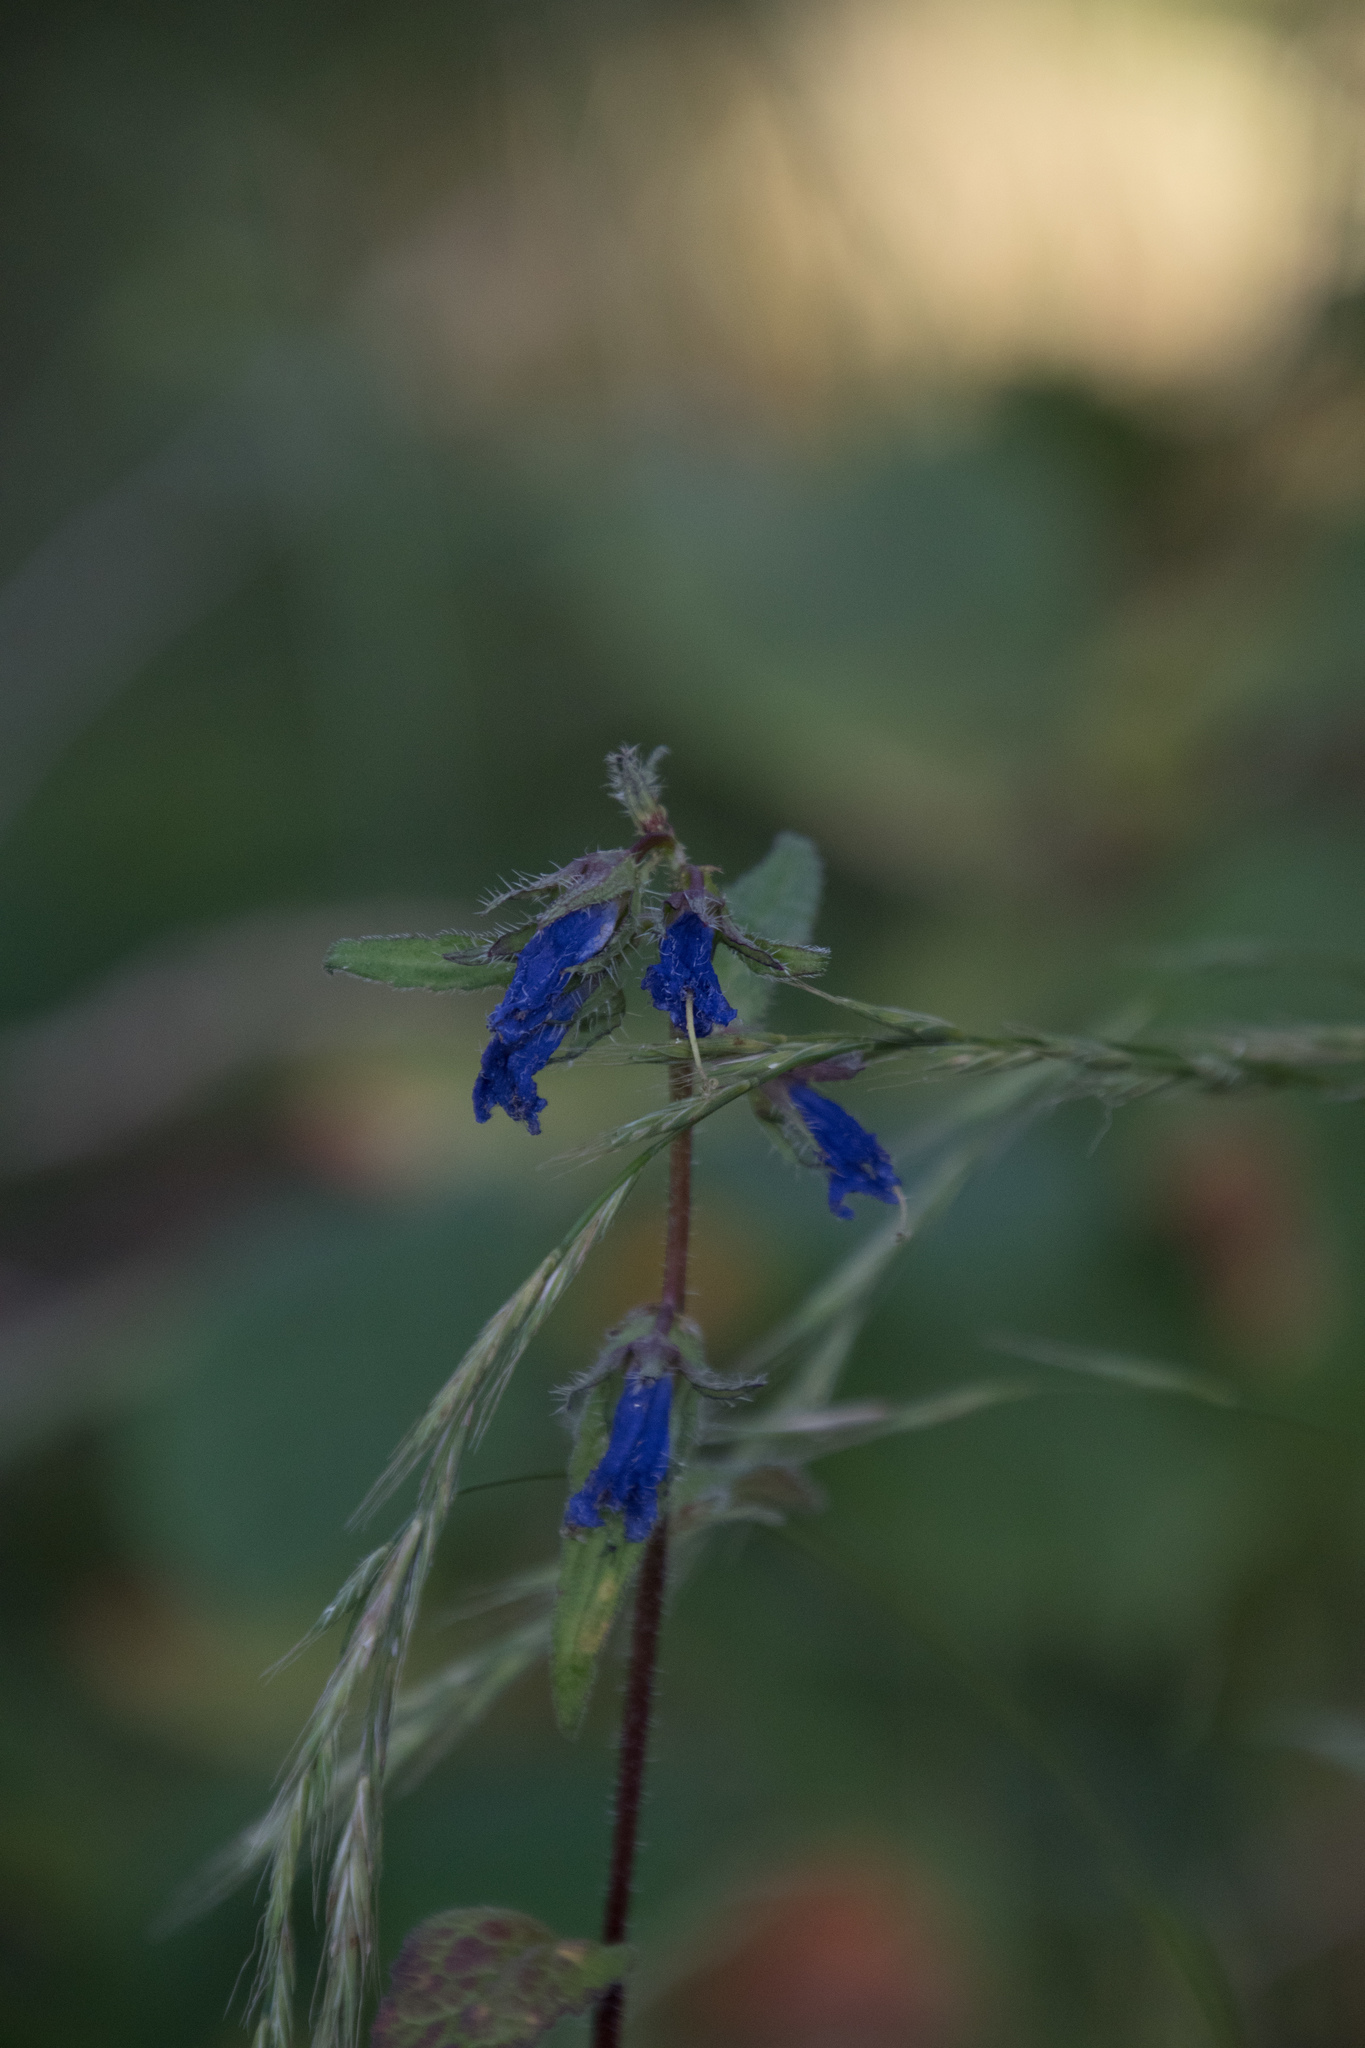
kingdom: Plantae
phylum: Tracheophyta
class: Magnoliopsida
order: Asterales
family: Campanulaceae
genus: Campanula
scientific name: Campanula trachelium
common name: Nettle-leaved bellflower
